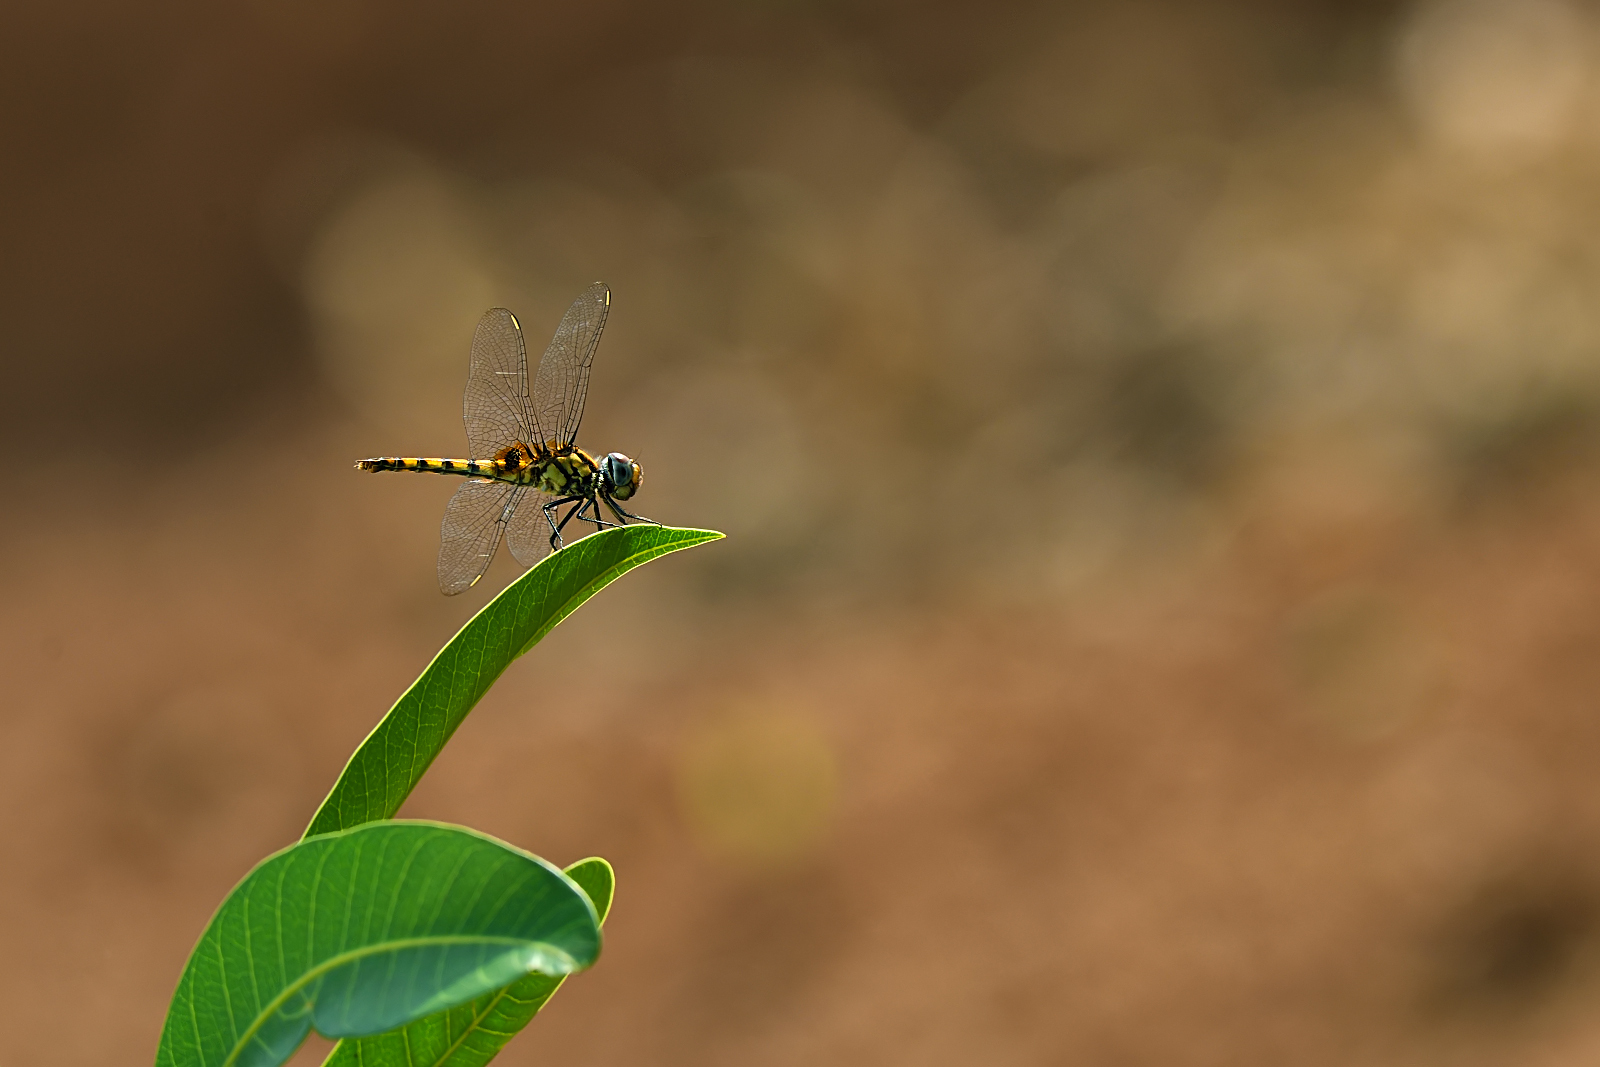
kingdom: Animalia
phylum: Arthropoda
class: Insecta
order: Odonata
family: Libellulidae
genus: Urothemis
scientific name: Urothemis signata
